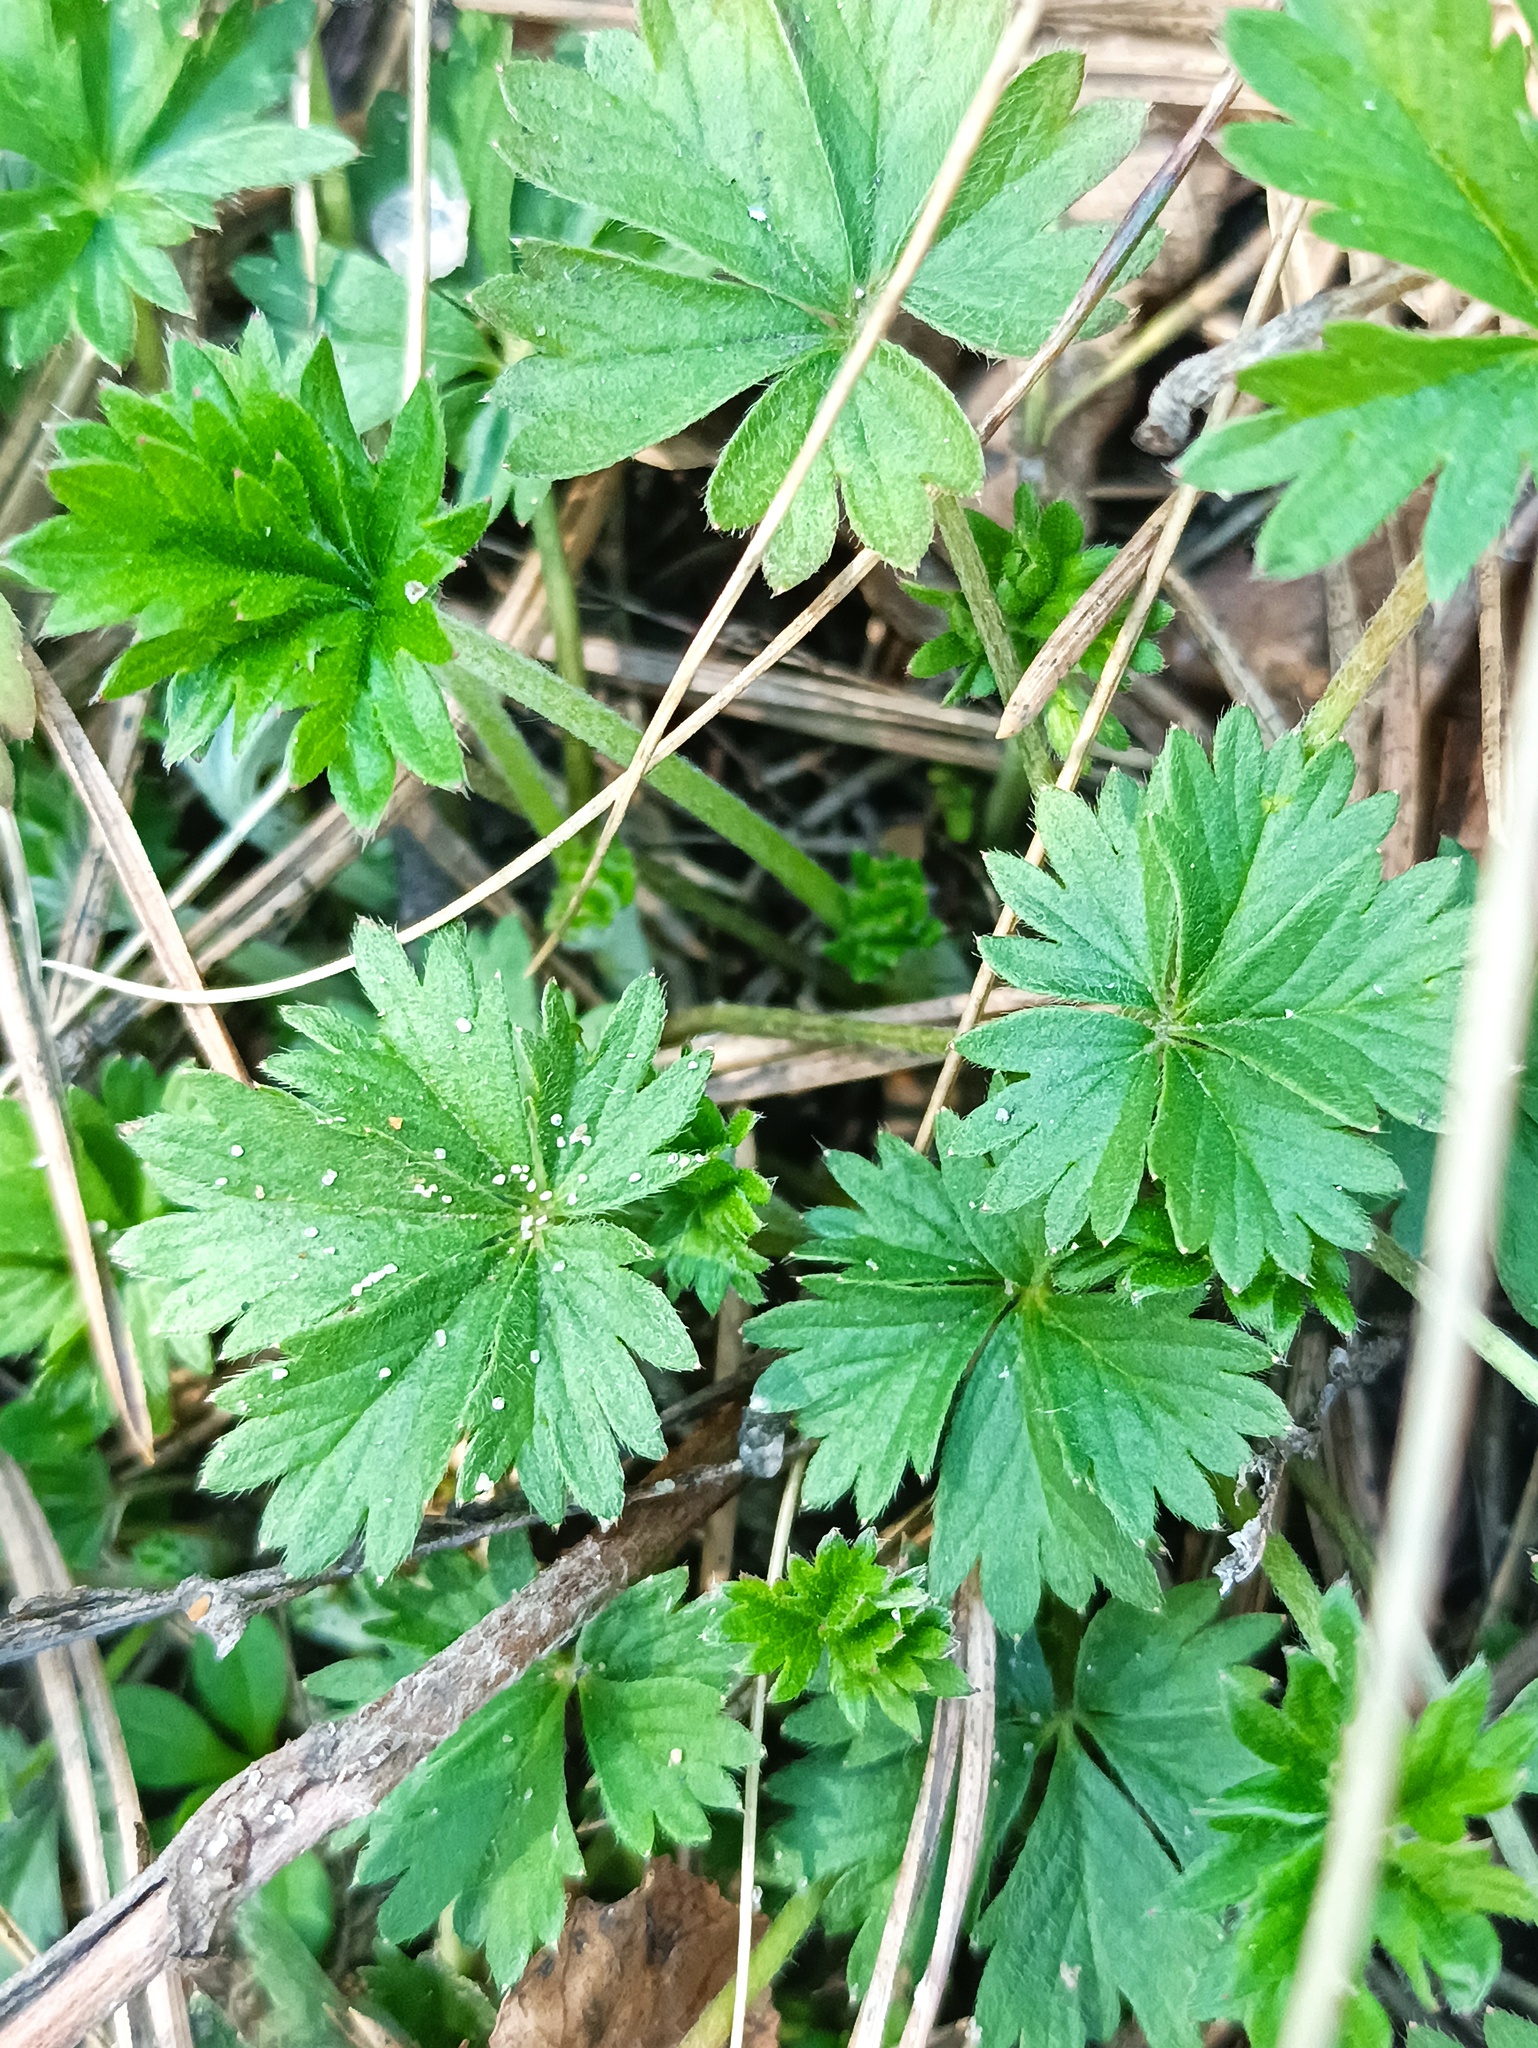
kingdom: Plantae
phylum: Tracheophyta
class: Magnoliopsida
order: Rosales
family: Rosaceae
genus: Potentilla
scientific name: Potentilla intermedia
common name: Downy cinquefoil
